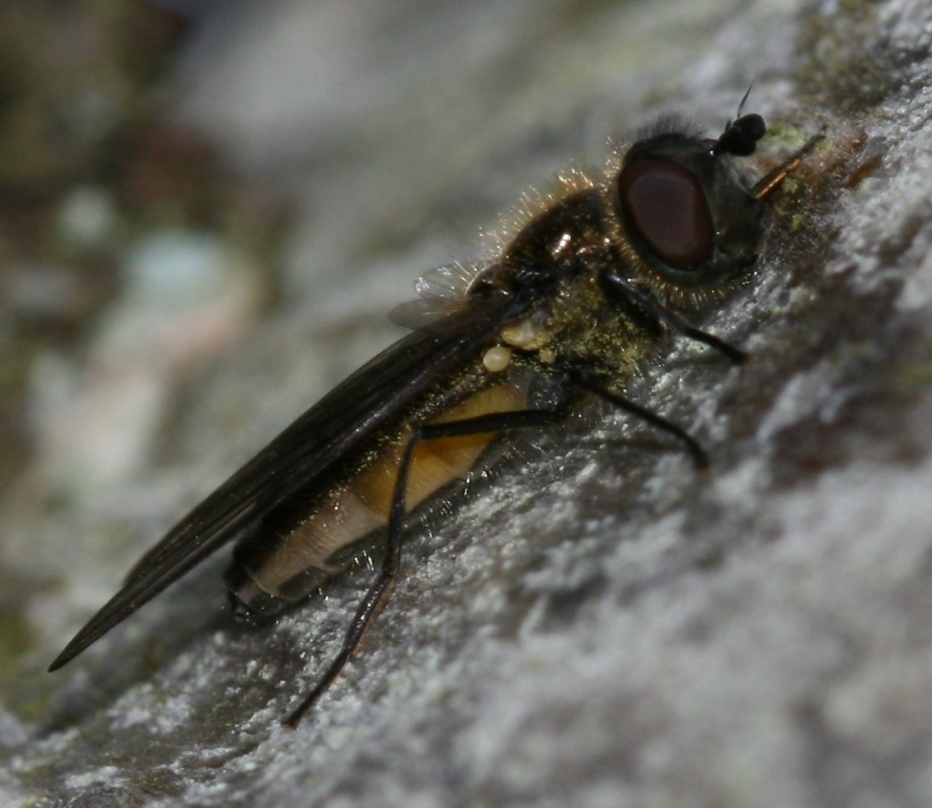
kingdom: Animalia
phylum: Arthropoda
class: Insecta
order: Diptera
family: Syrphidae
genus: Melangyna
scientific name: Melangyna quadrimaculata
